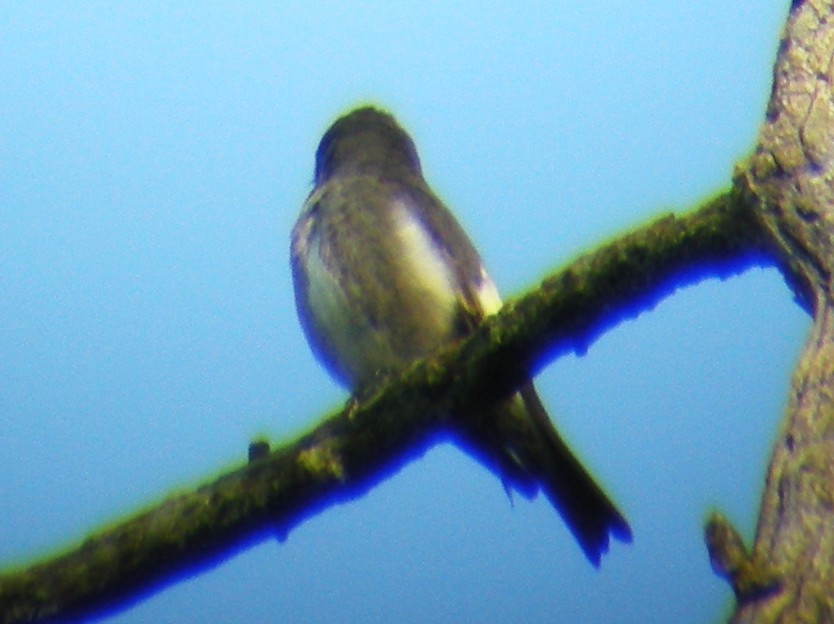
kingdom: Animalia
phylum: Chordata
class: Aves
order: Passeriformes
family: Tyrannidae
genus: Contopus
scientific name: Contopus cooperi
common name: Olive-sided flycatcher
